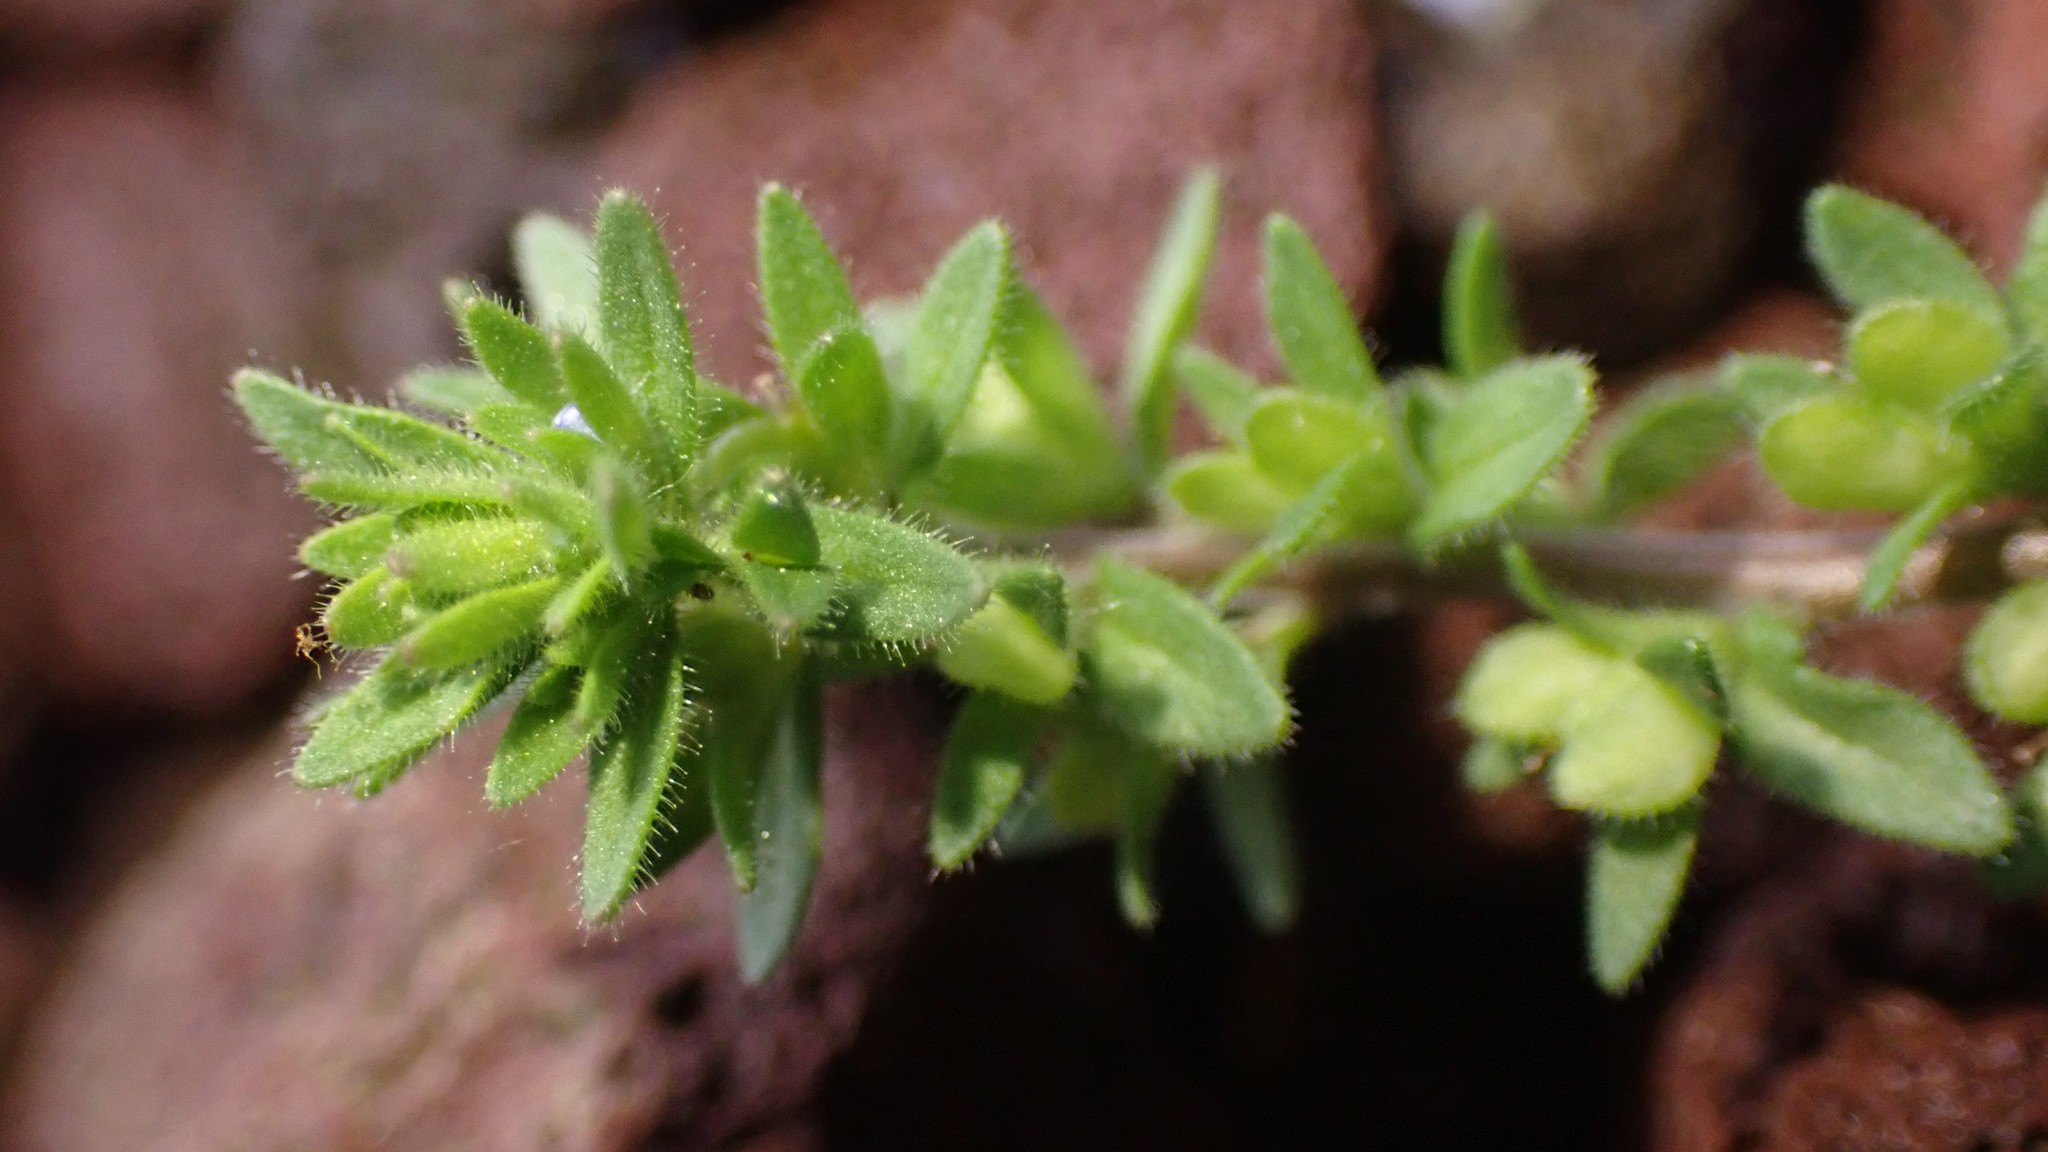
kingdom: Plantae
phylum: Tracheophyta
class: Magnoliopsida
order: Lamiales
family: Plantaginaceae
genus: Veronica
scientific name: Veronica arvensis
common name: Corn speedwell
